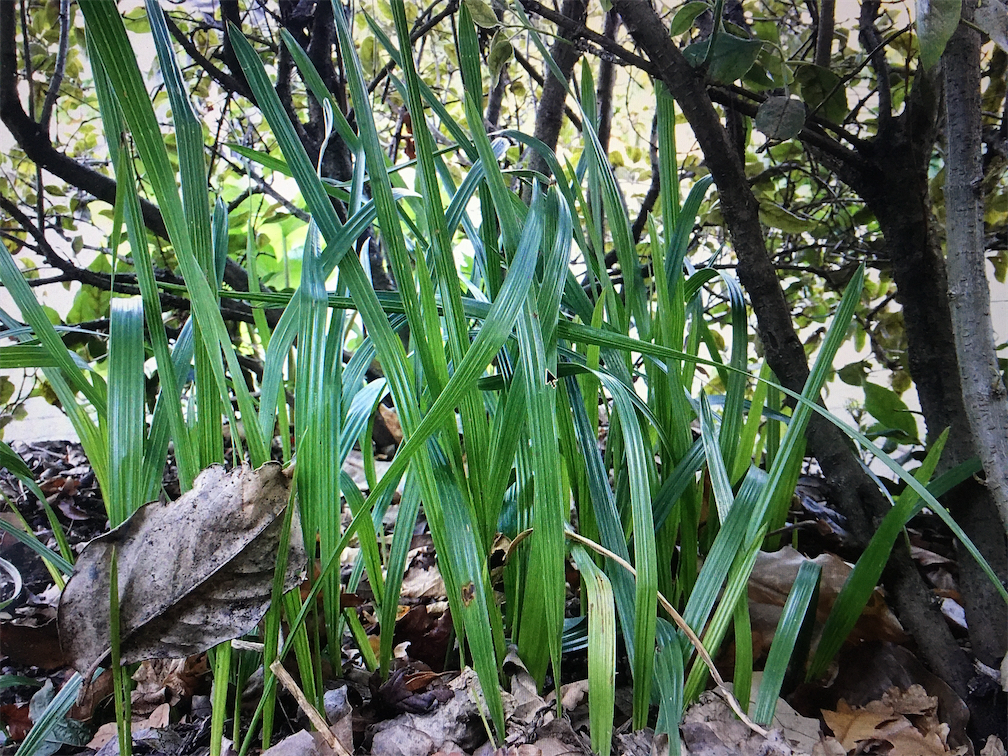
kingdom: Plantae
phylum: Tracheophyta
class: Liliopsida
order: Arecales
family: Arecaceae
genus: Phoenix
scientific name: Phoenix canariensis
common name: Canary island date palm
